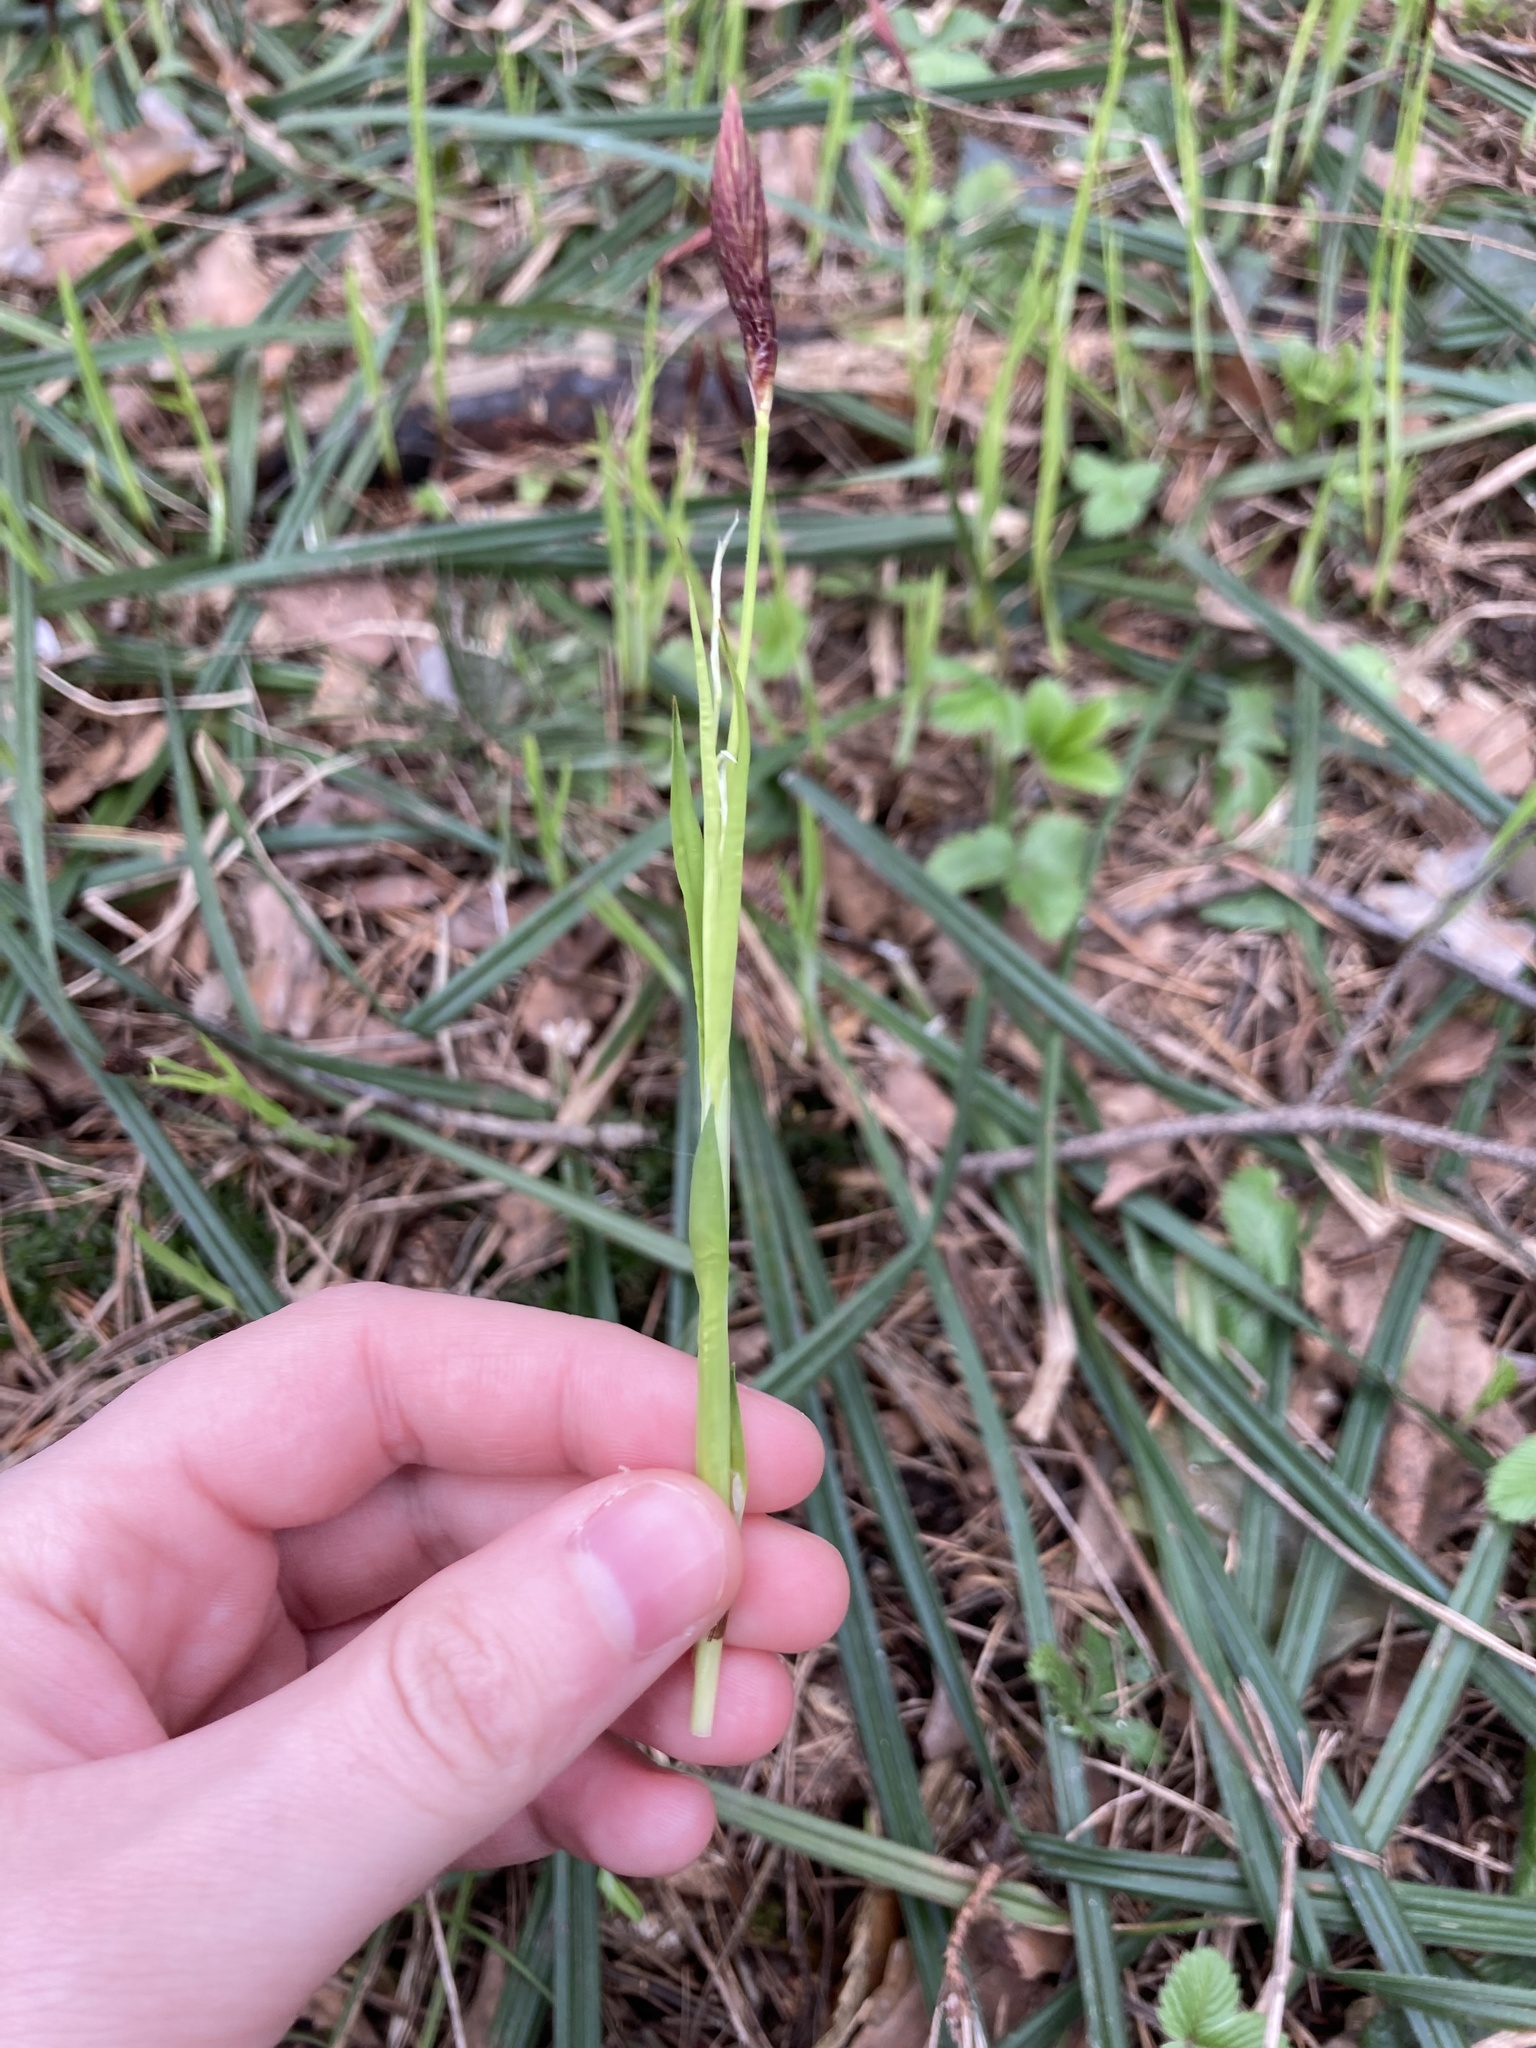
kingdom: Plantae
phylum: Tracheophyta
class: Liliopsida
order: Poales
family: Cyperaceae
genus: Carex
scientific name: Carex pilosa
